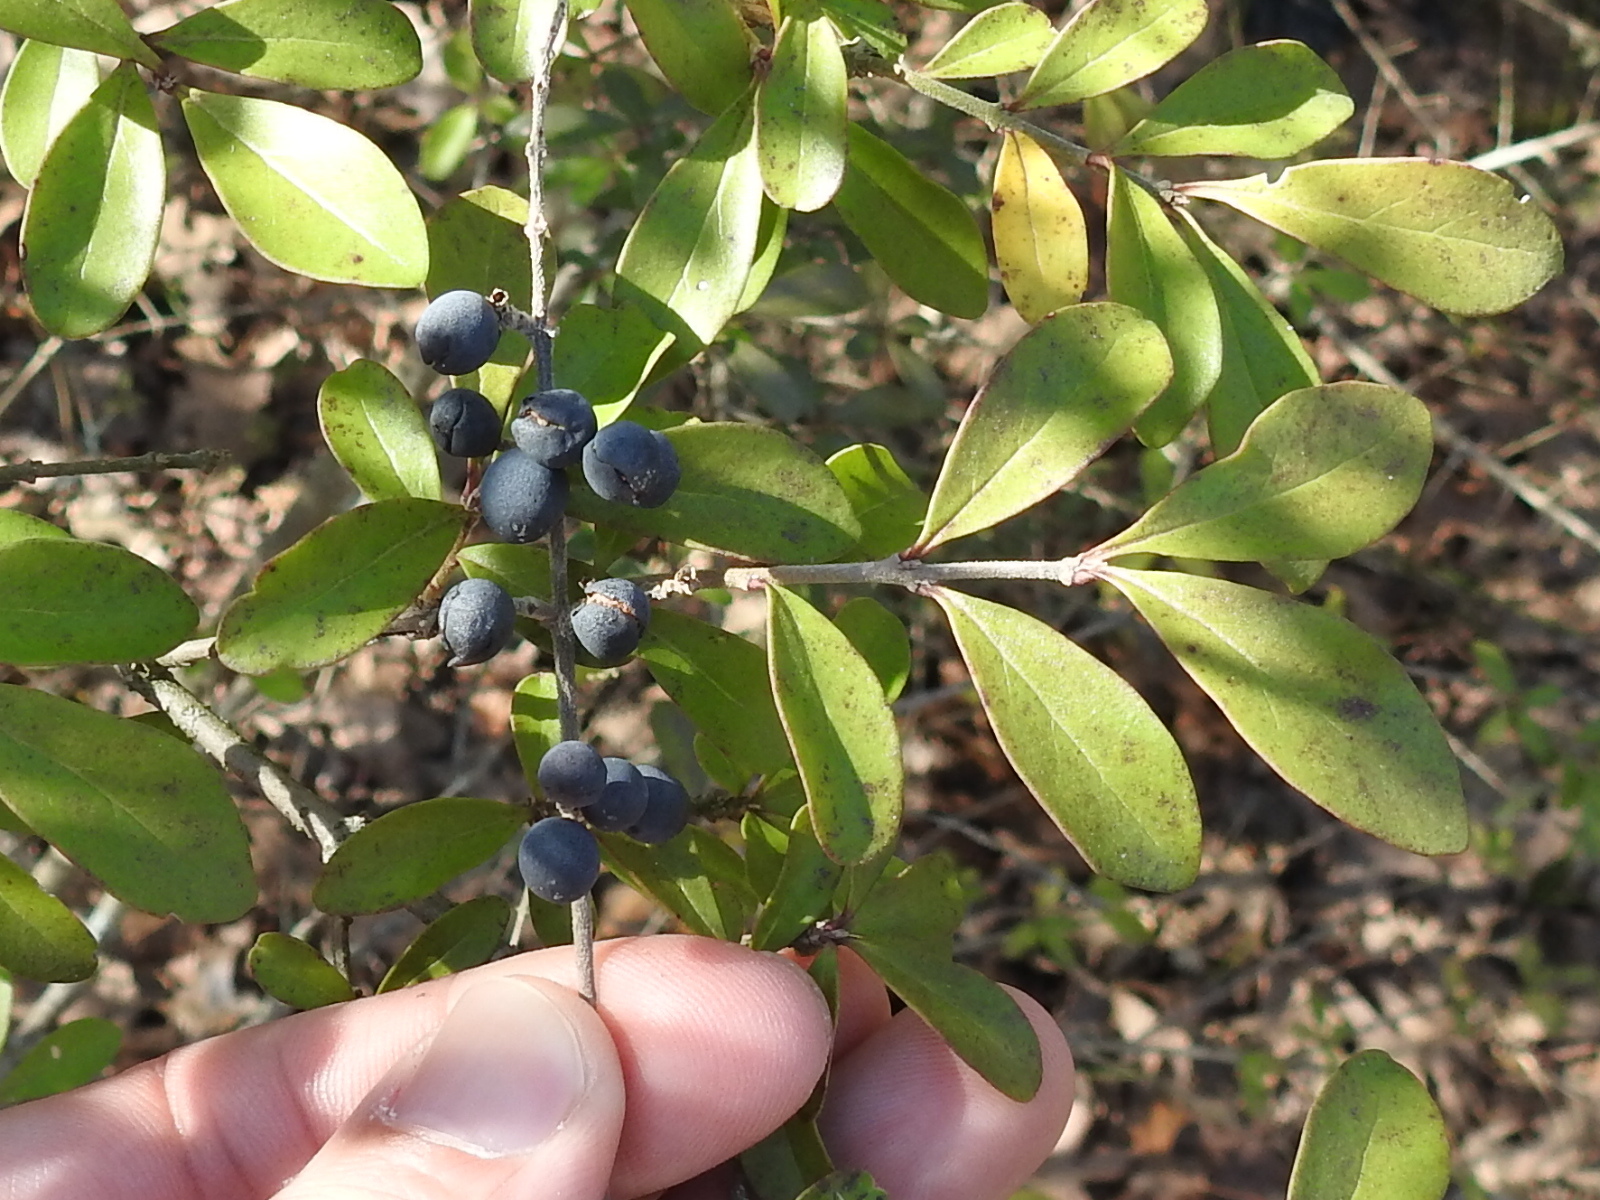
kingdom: Plantae
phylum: Tracheophyta
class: Magnoliopsida
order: Lamiales
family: Oleaceae
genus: Ligustrum
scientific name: Ligustrum quihoui
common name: Waxyleaf privet
